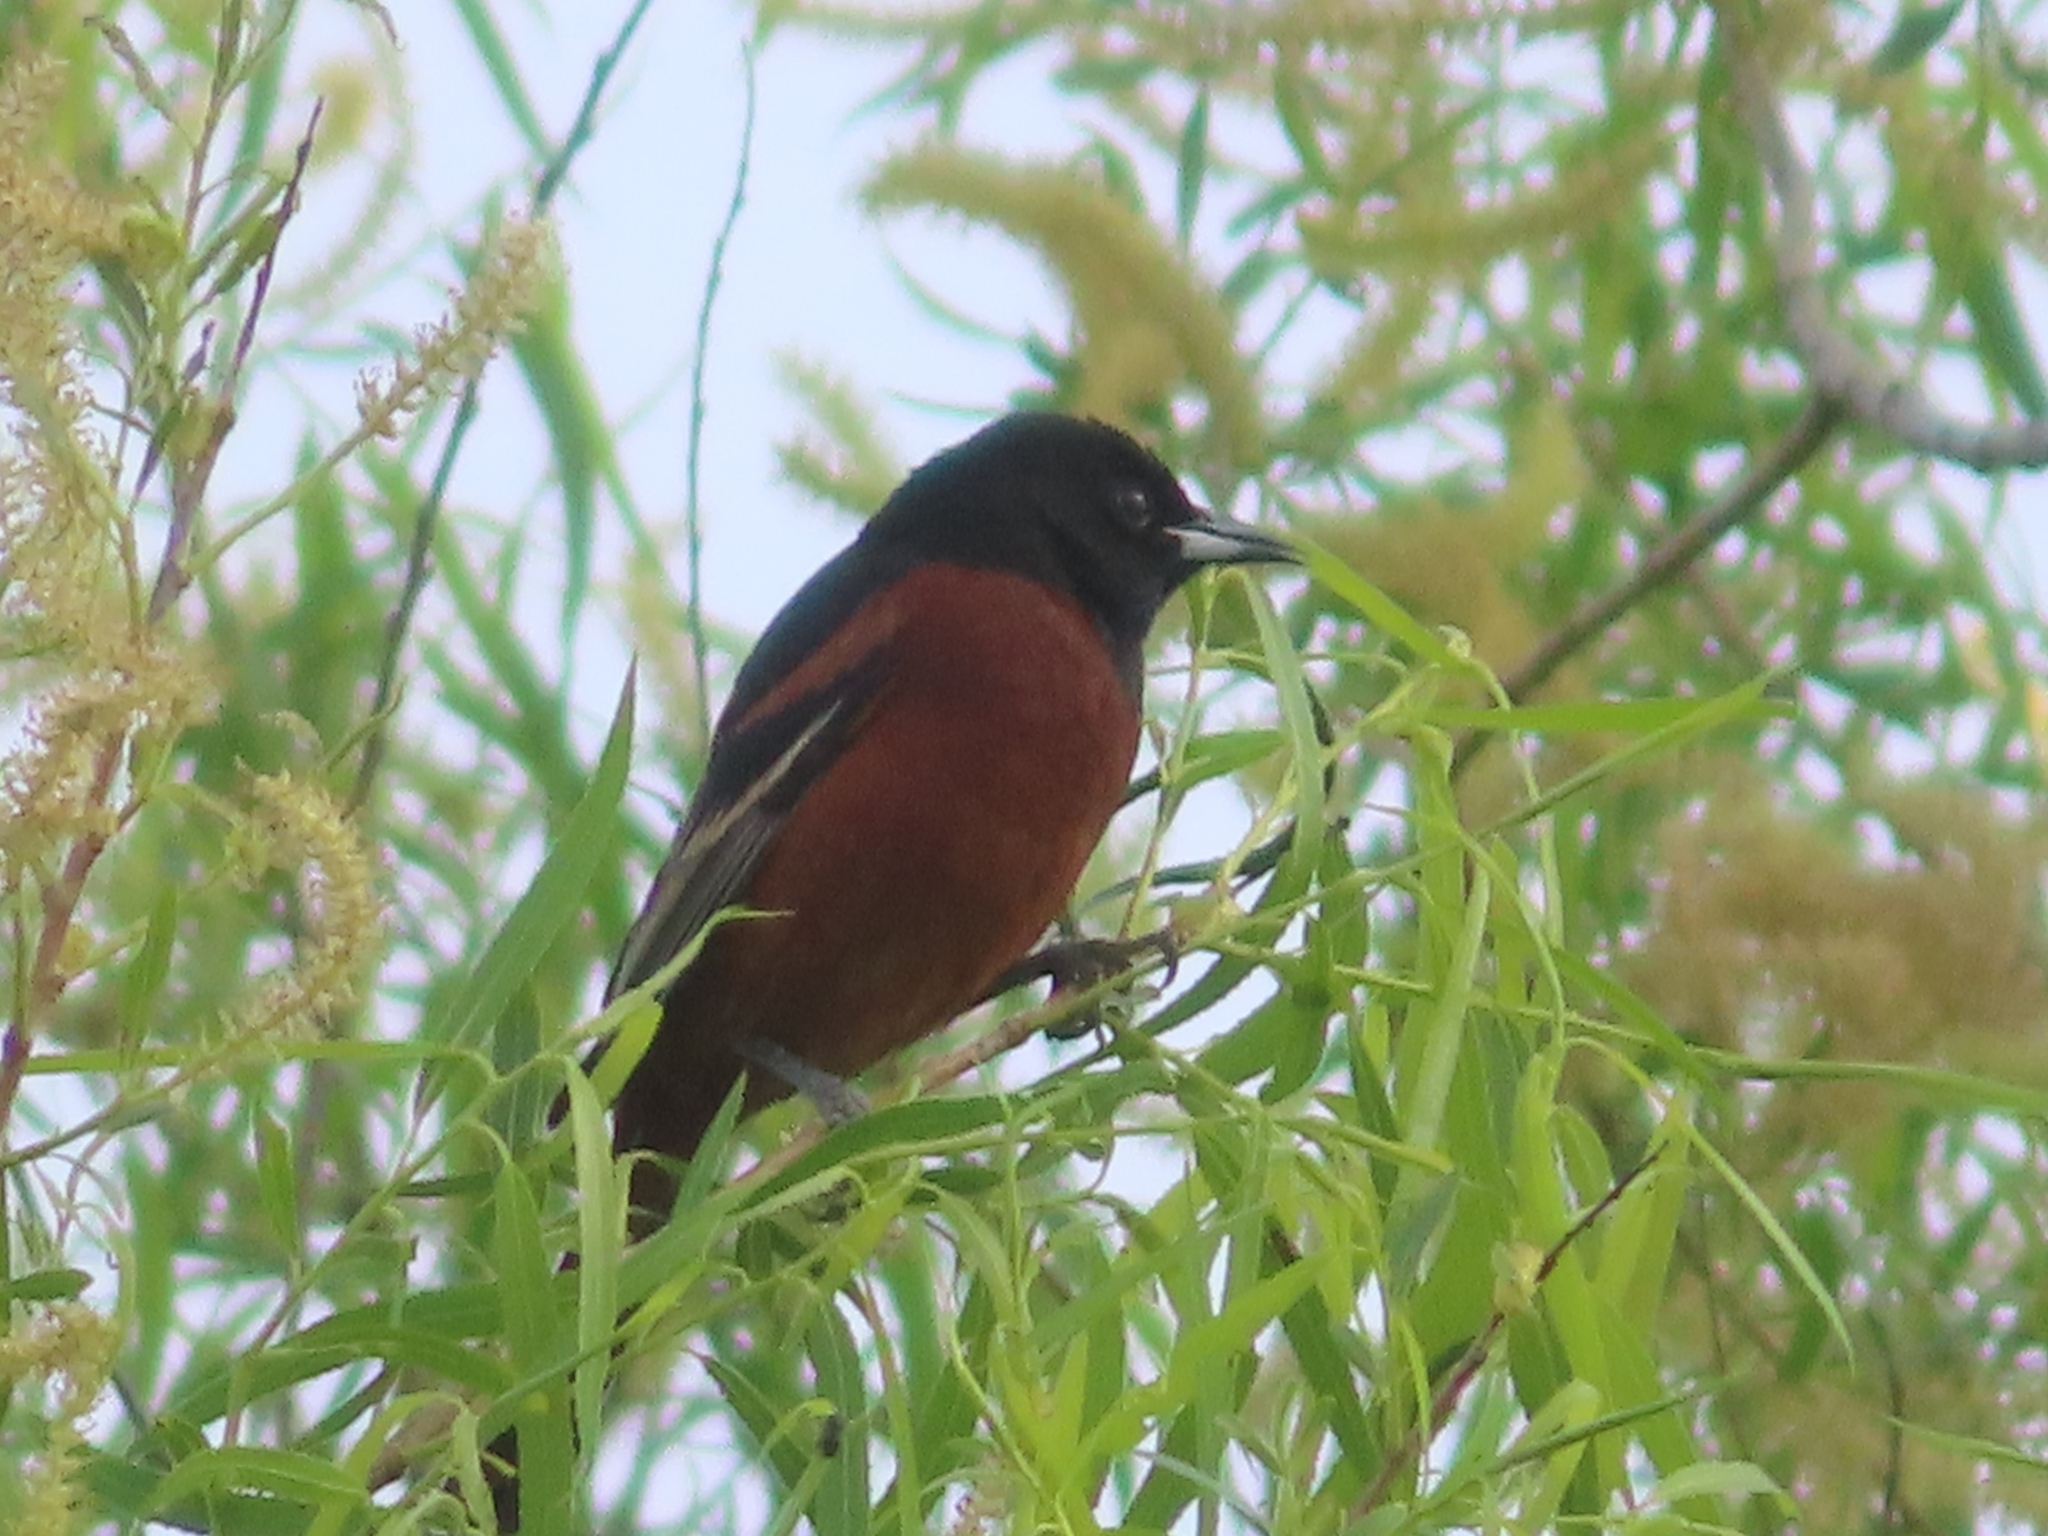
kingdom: Animalia
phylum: Chordata
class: Aves
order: Passeriformes
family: Icteridae
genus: Icterus
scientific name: Icterus spurius
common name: Orchard oriole
